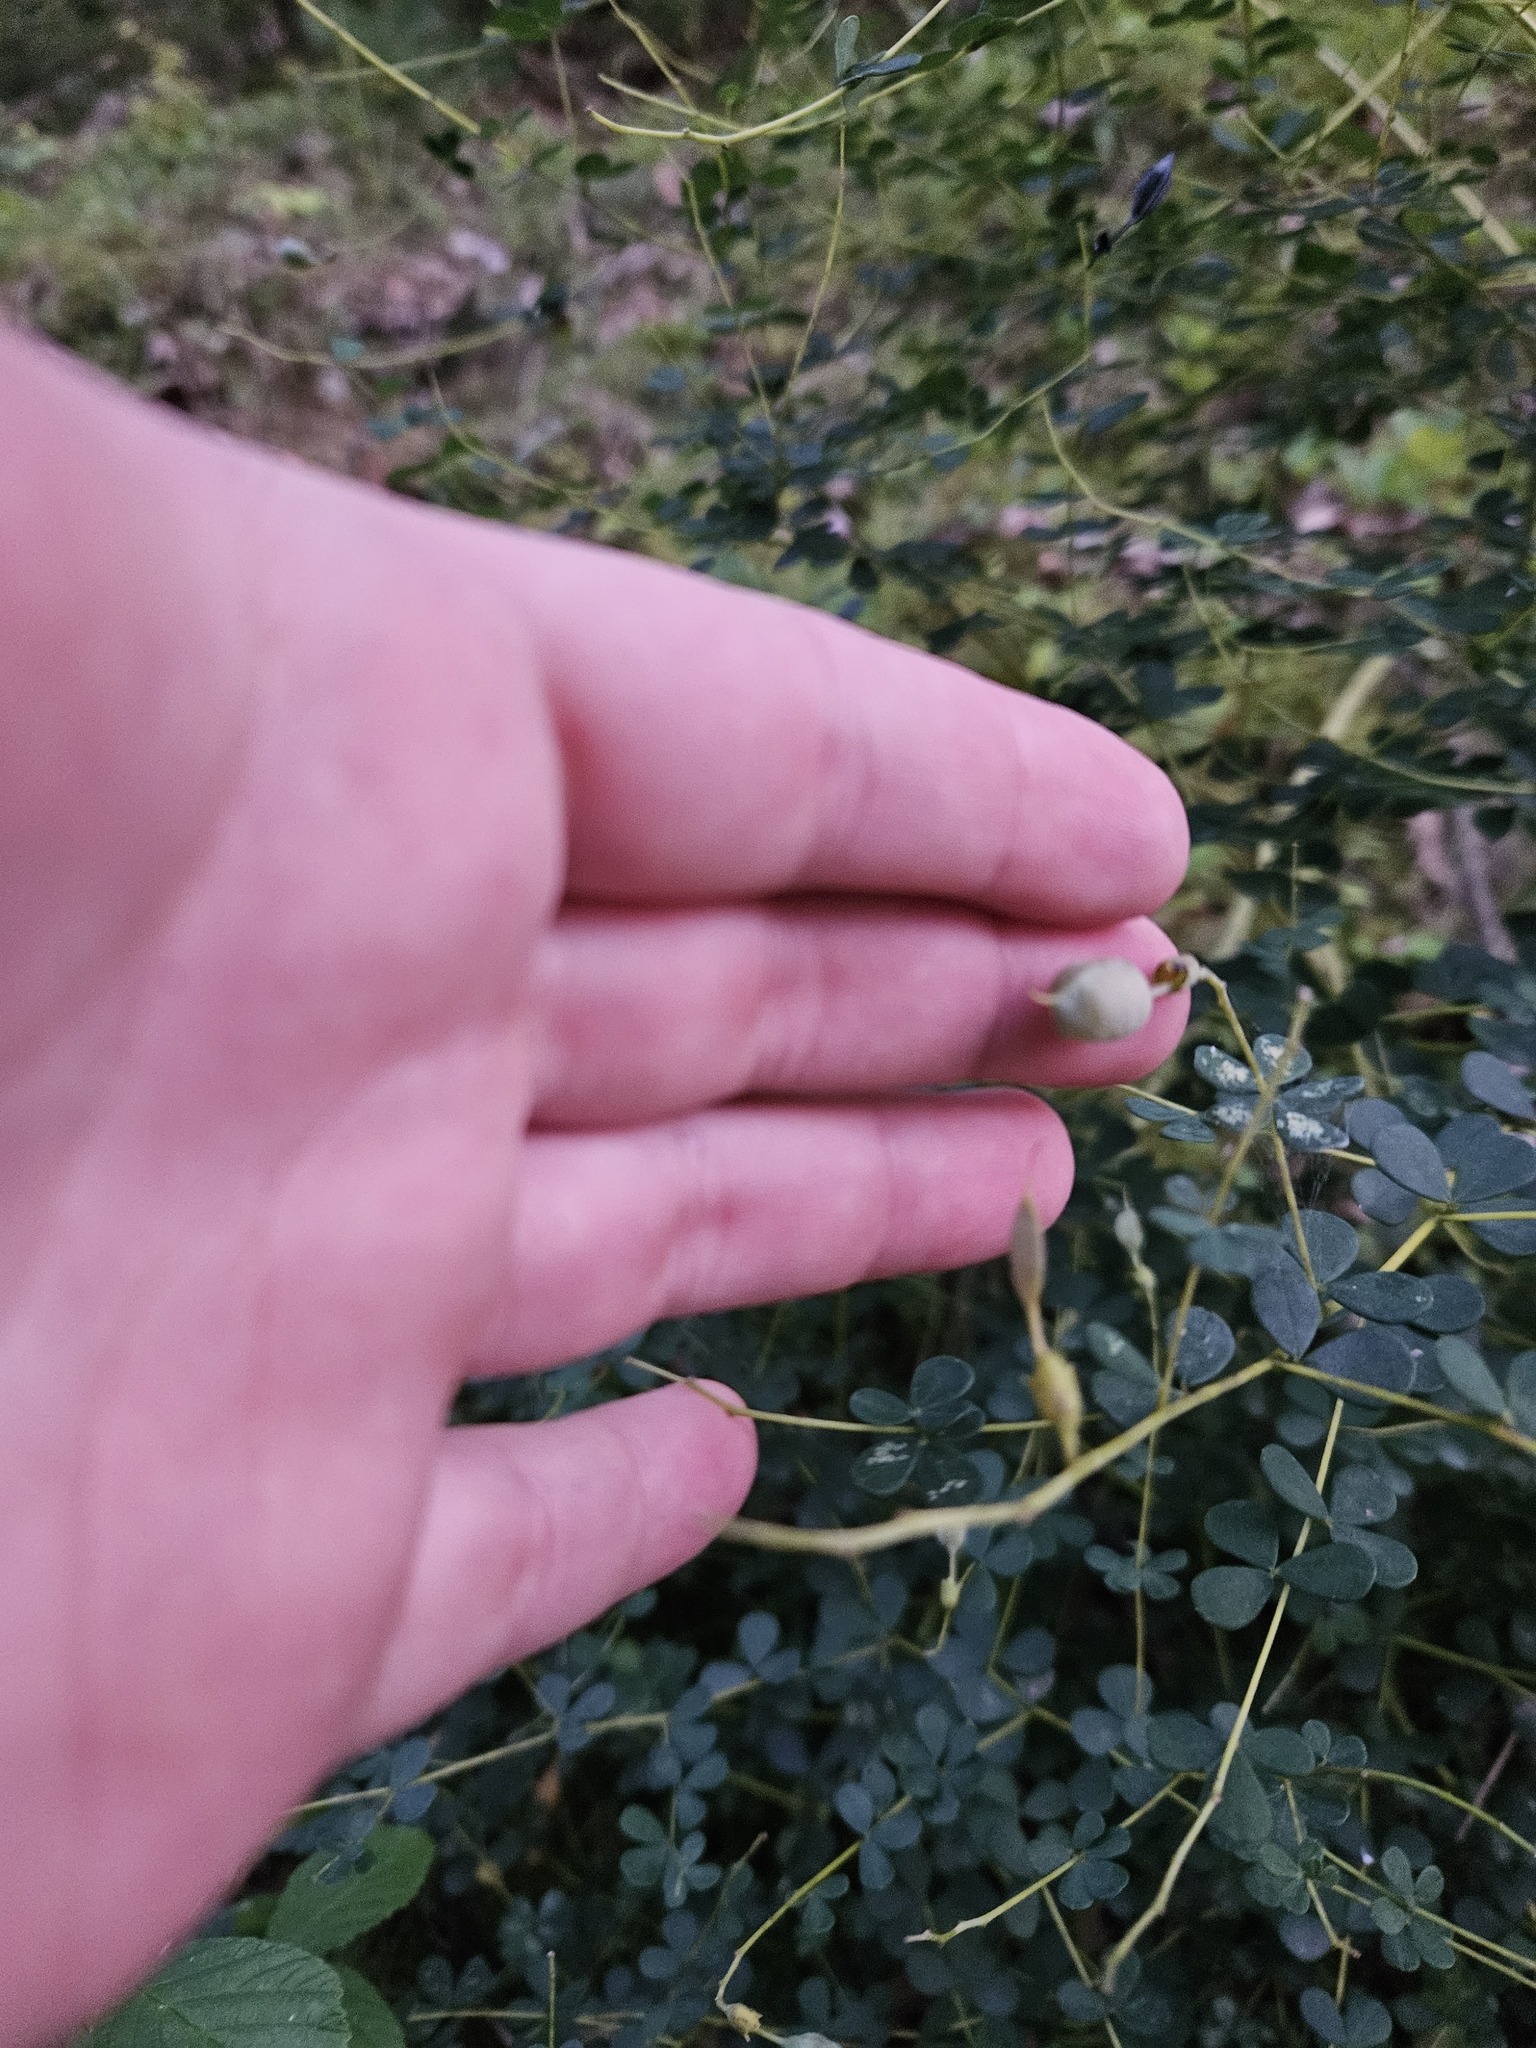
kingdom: Plantae
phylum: Tracheophyta
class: Magnoliopsida
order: Fabales
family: Fabaceae
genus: Baptisia
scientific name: Baptisia tinctoria
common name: Wild indigo
